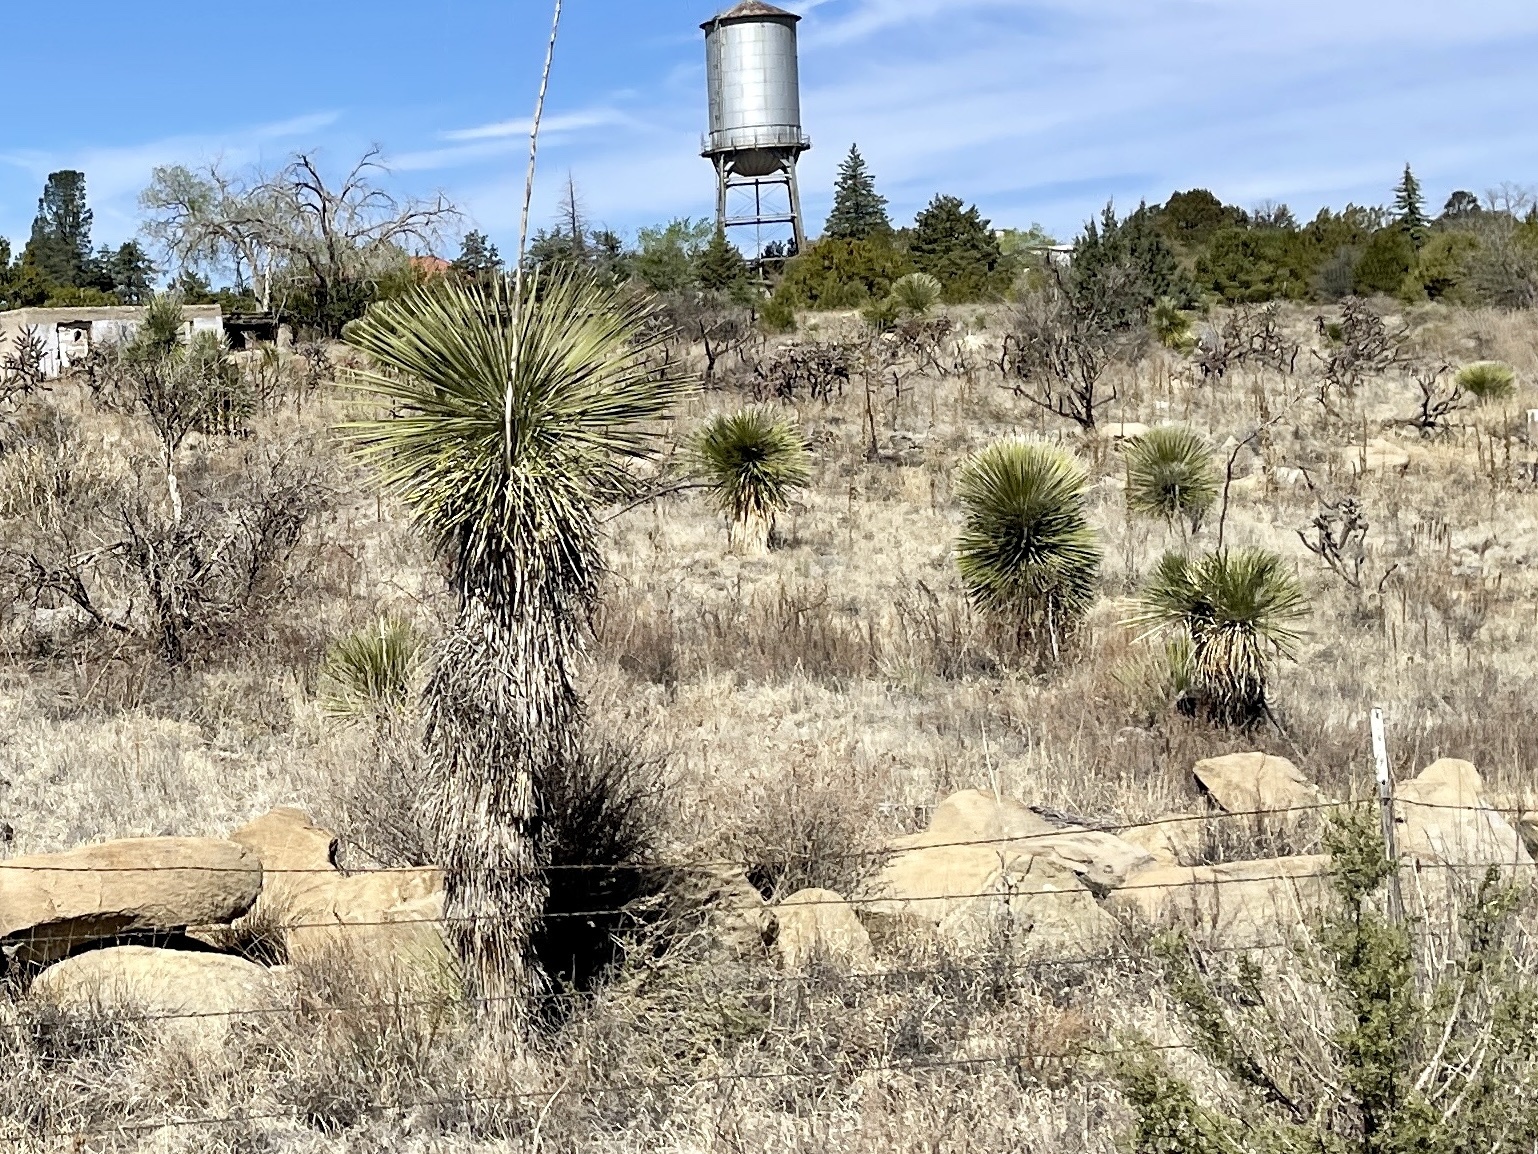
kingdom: Plantae
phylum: Tracheophyta
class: Liliopsida
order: Asparagales
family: Asparagaceae
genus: Yucca
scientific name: Yucca elata
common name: Palmella
